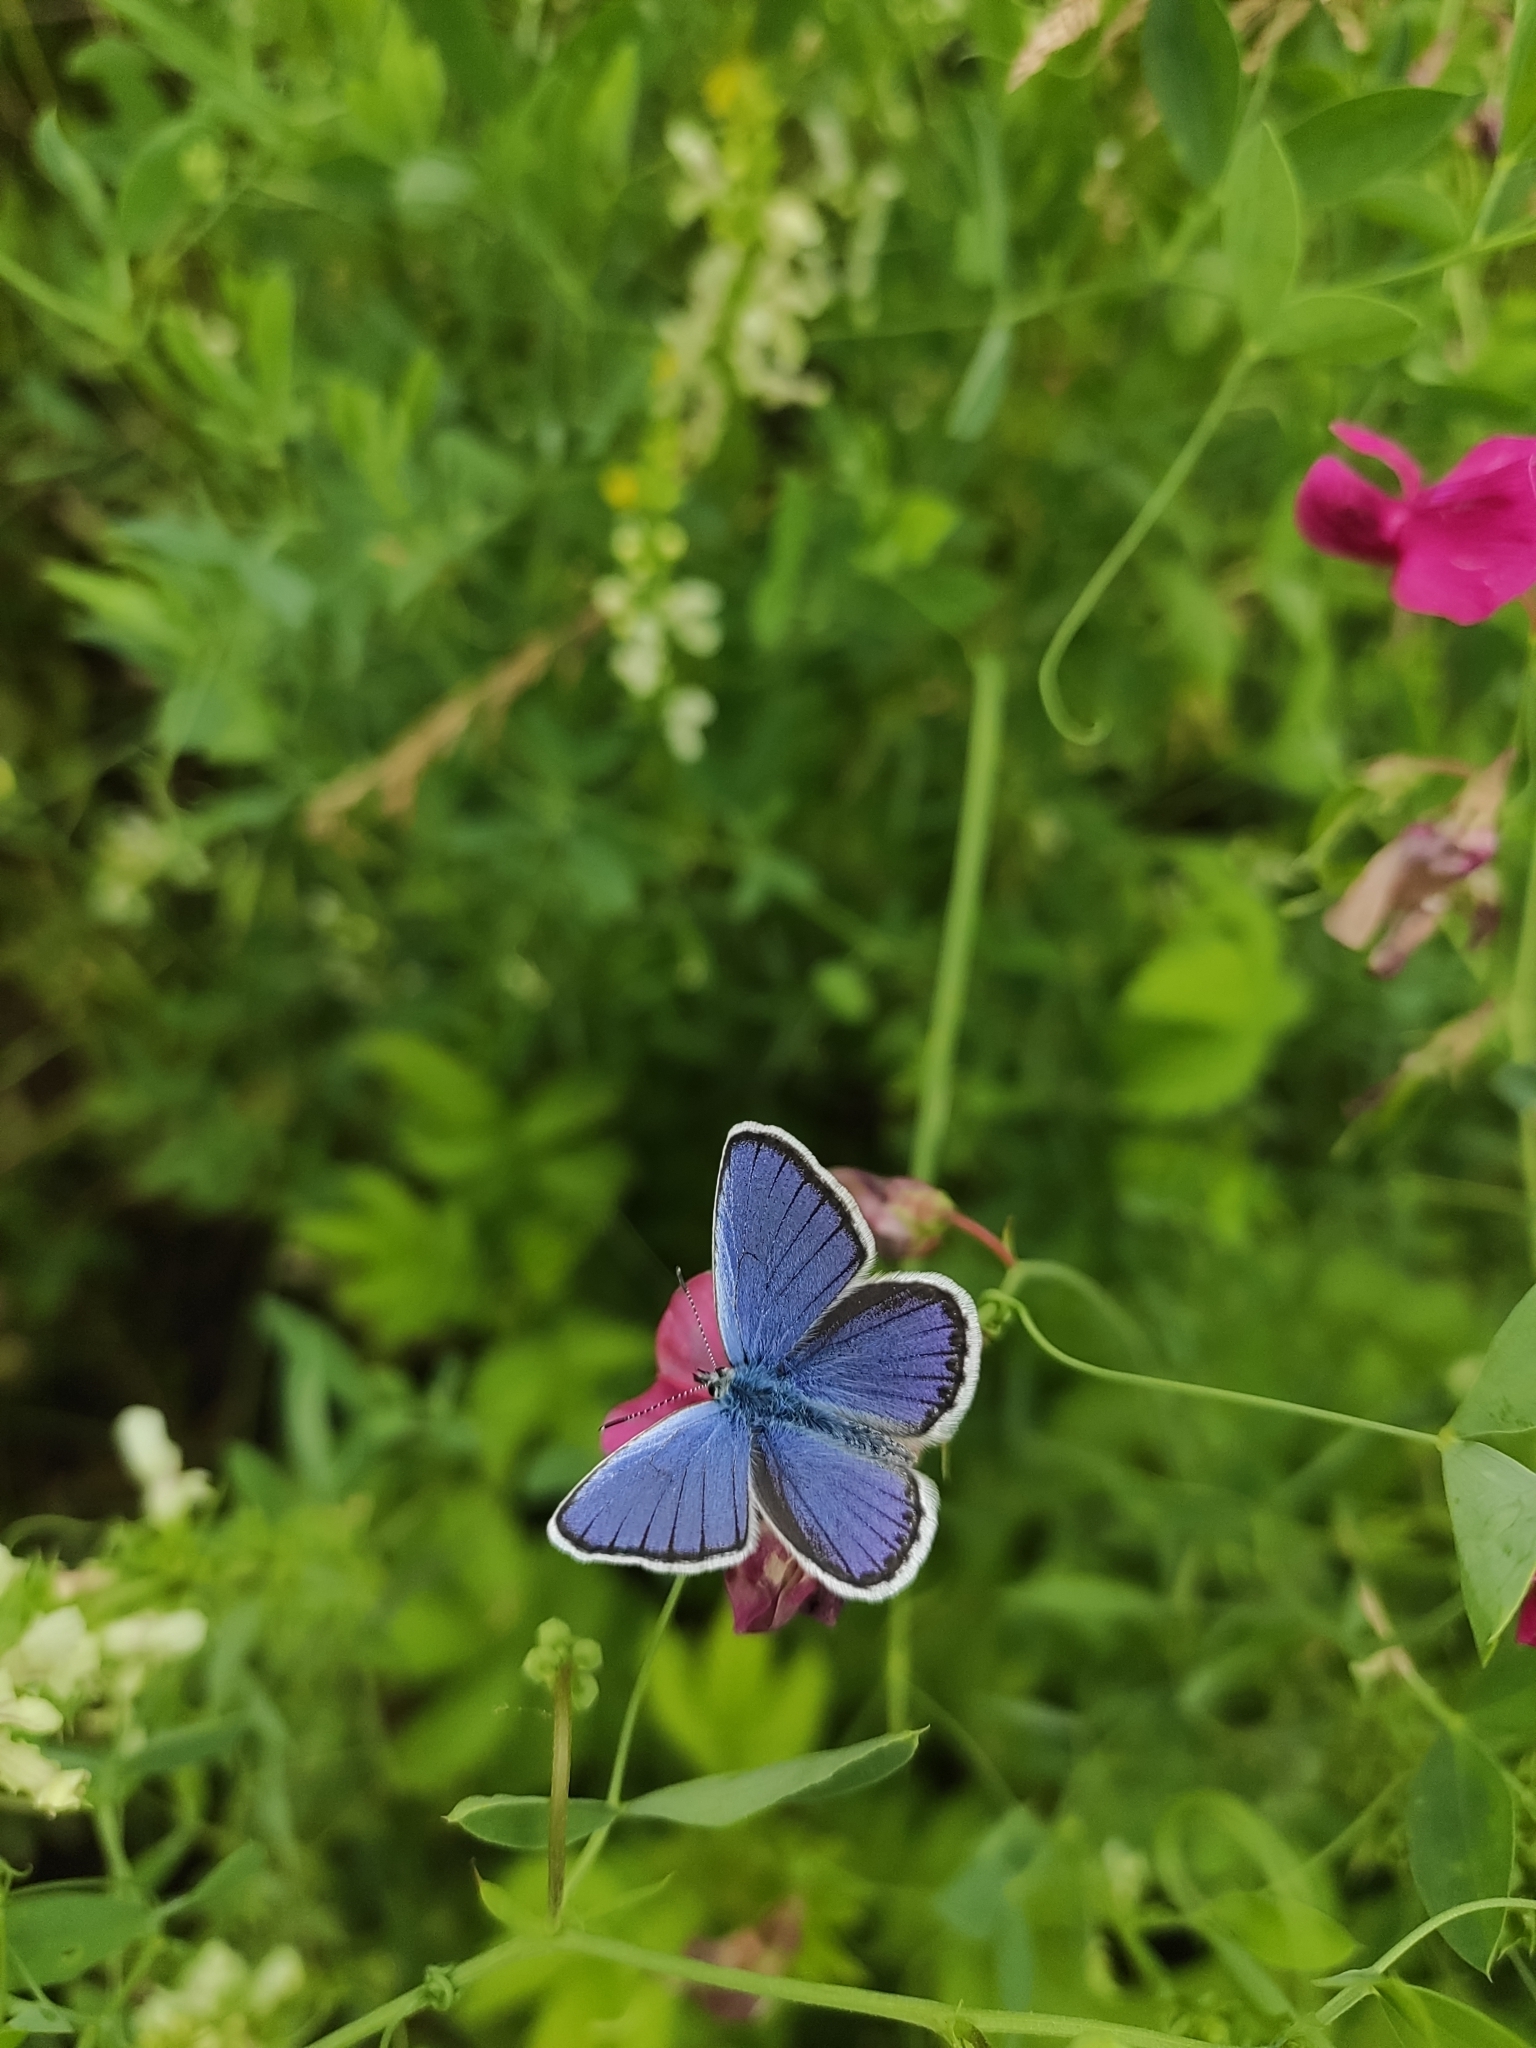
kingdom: Animalia
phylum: Arthropoda
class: Insecta
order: Lepidoptera
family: Lycaenidae
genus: Cyaniris
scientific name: Cyaniris semiargus
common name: Mazarine blue
